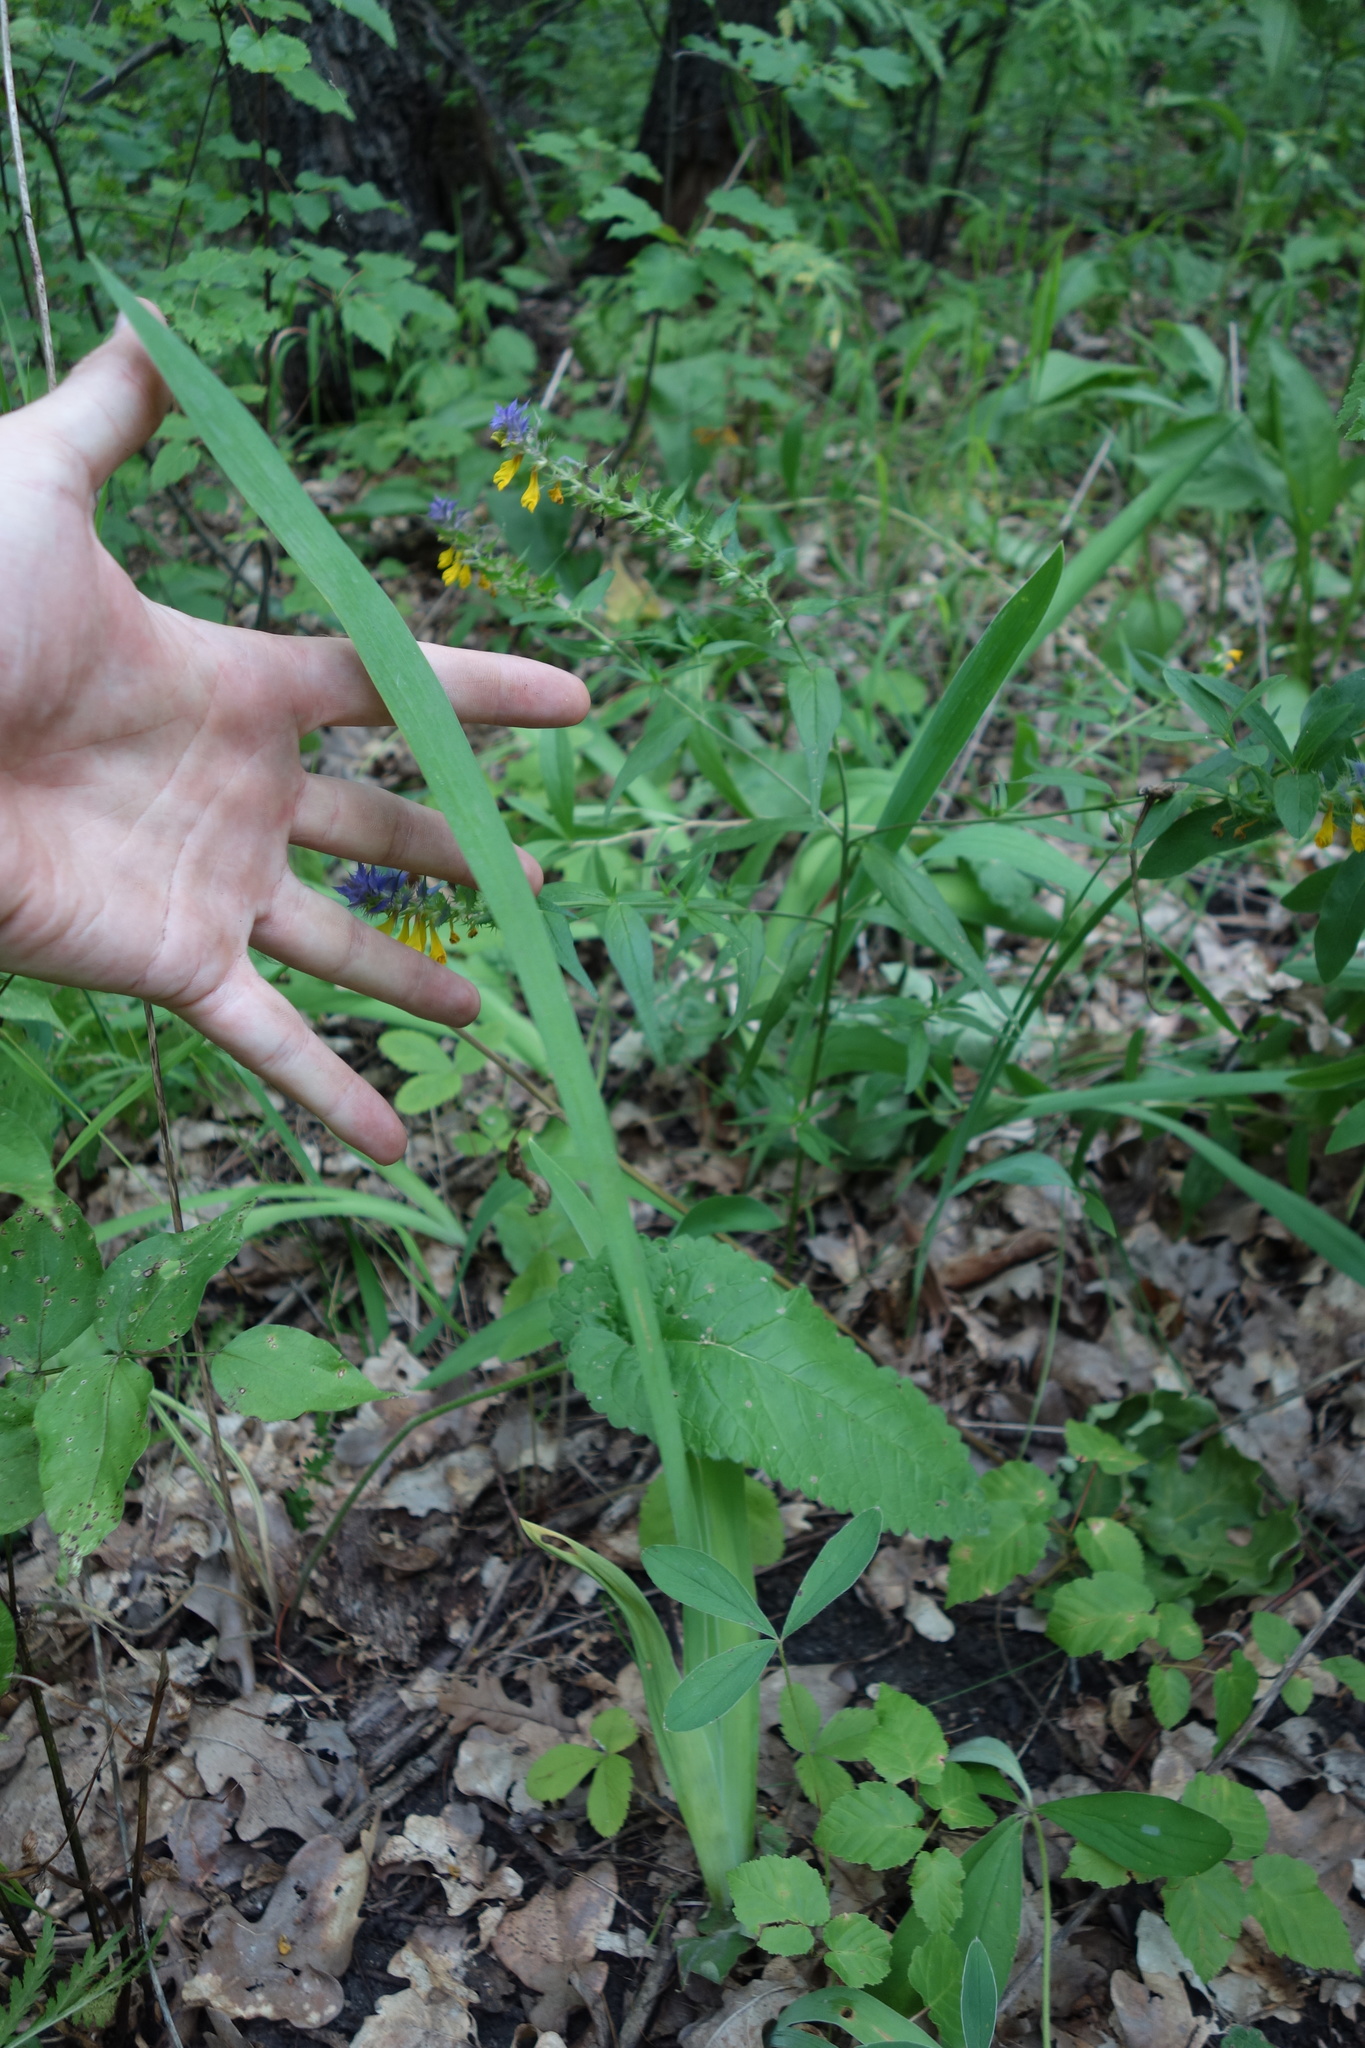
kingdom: Plantae
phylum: Tracheophyta
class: Liliopsida
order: Asparagales
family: Iridaceae
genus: Iris
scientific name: Iris aphylla
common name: Stool iris
